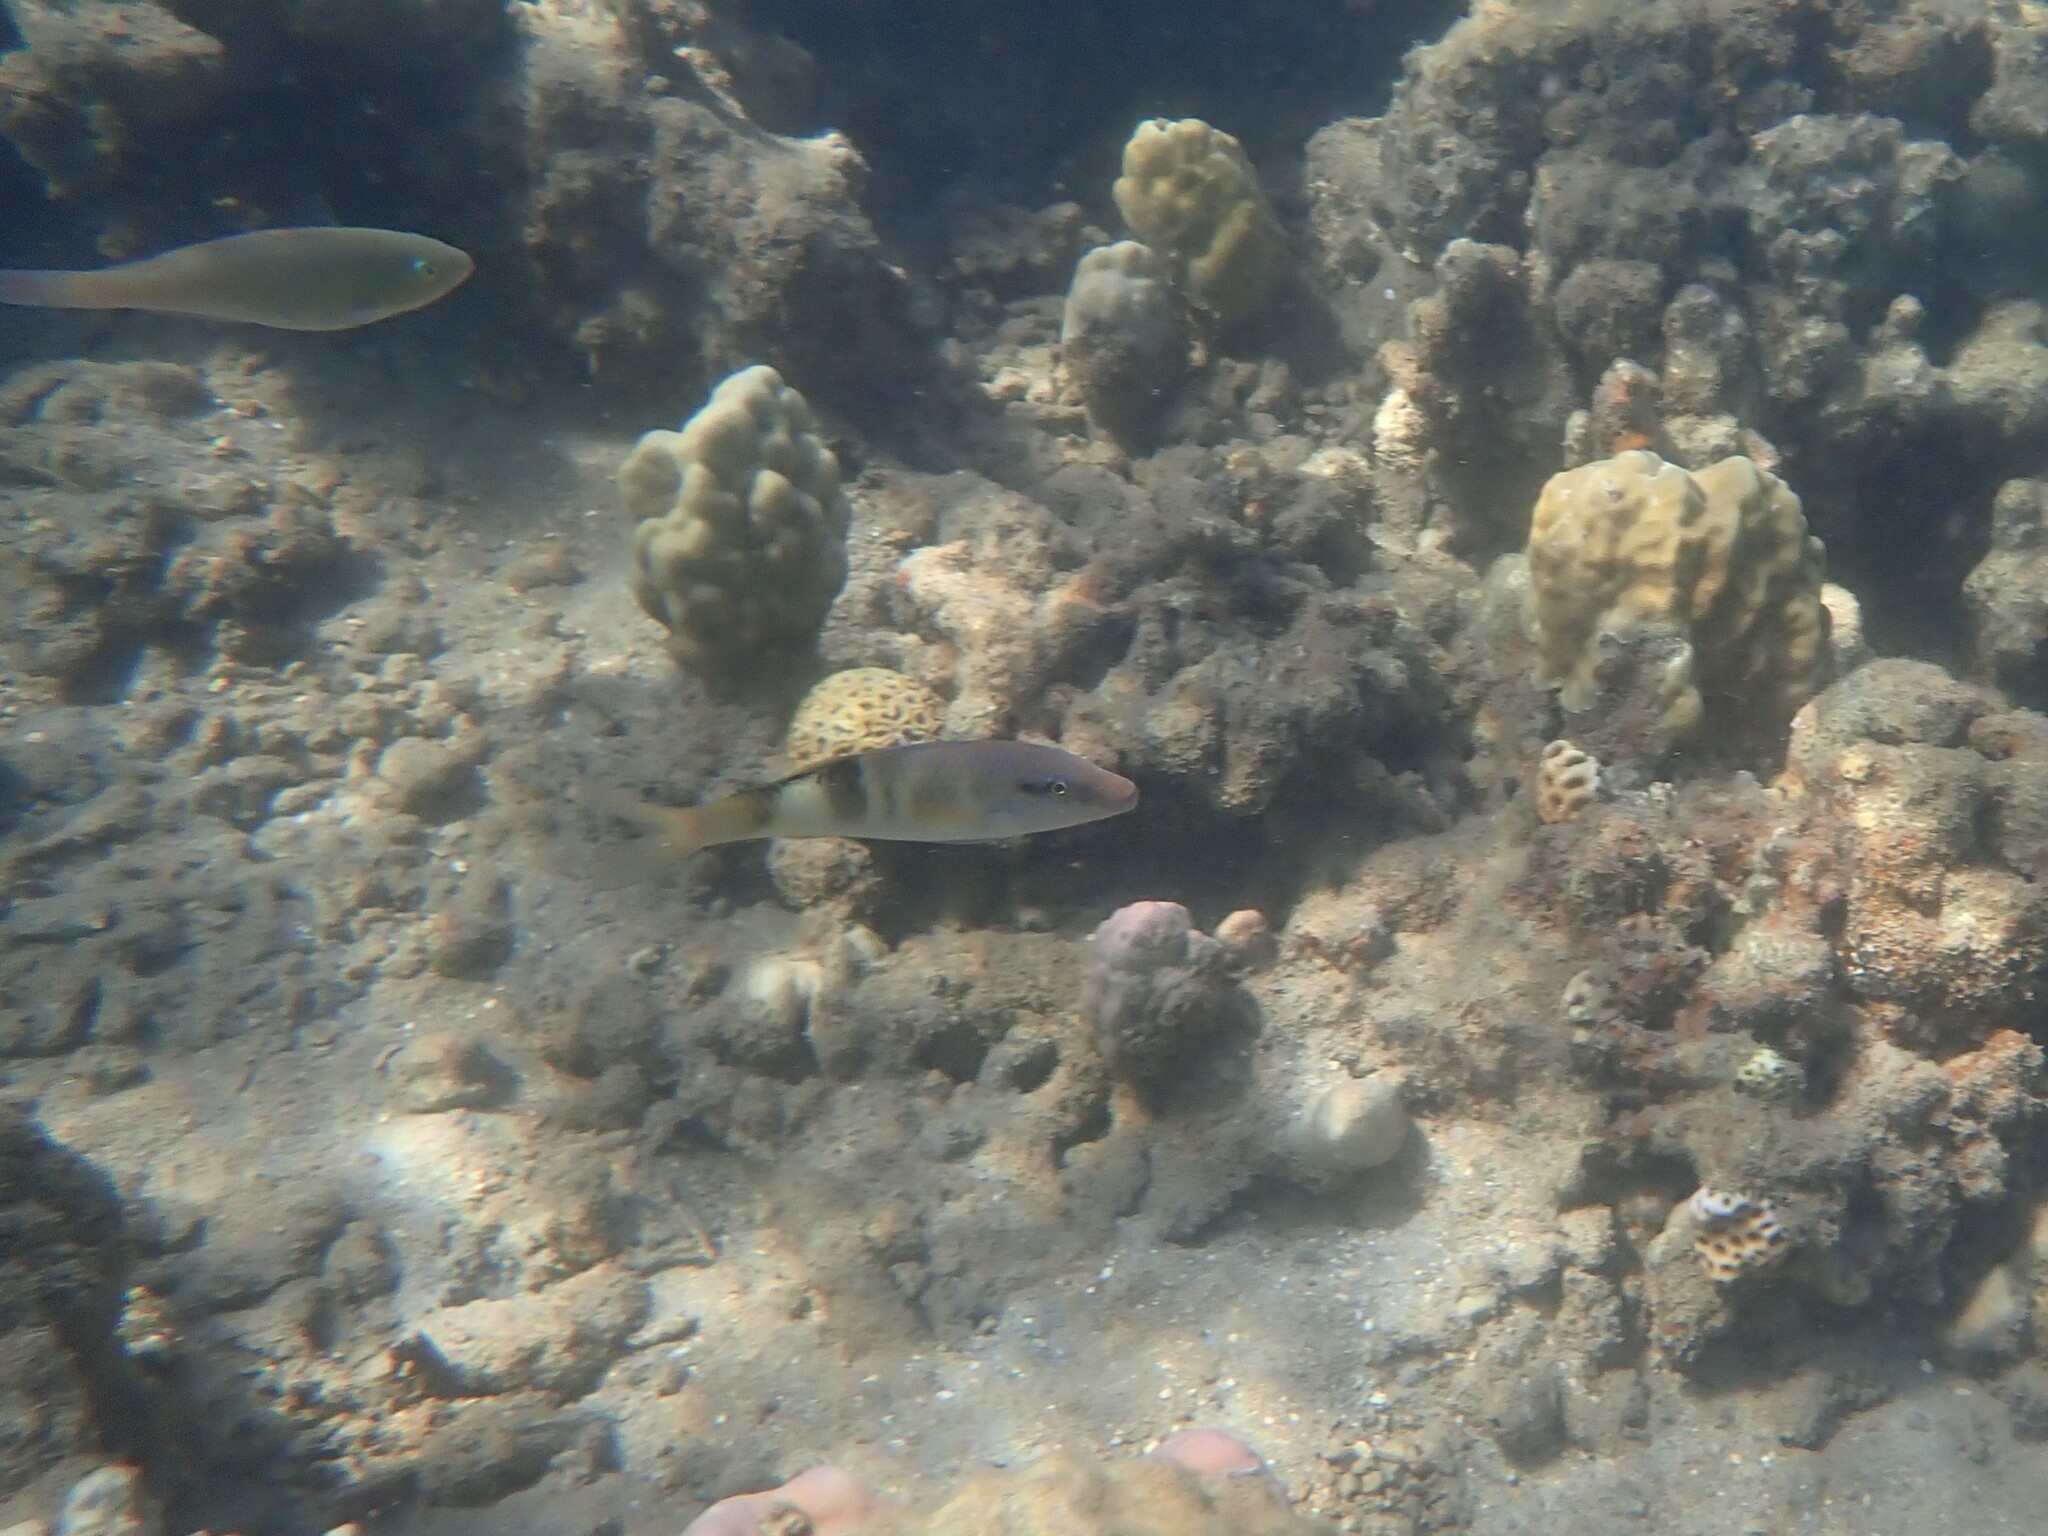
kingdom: Animalia
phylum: Chordata
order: Perciformes
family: Mullidae
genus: Parupeneus
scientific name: Parupeneus multifasciatus
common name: Manybar goatfish
